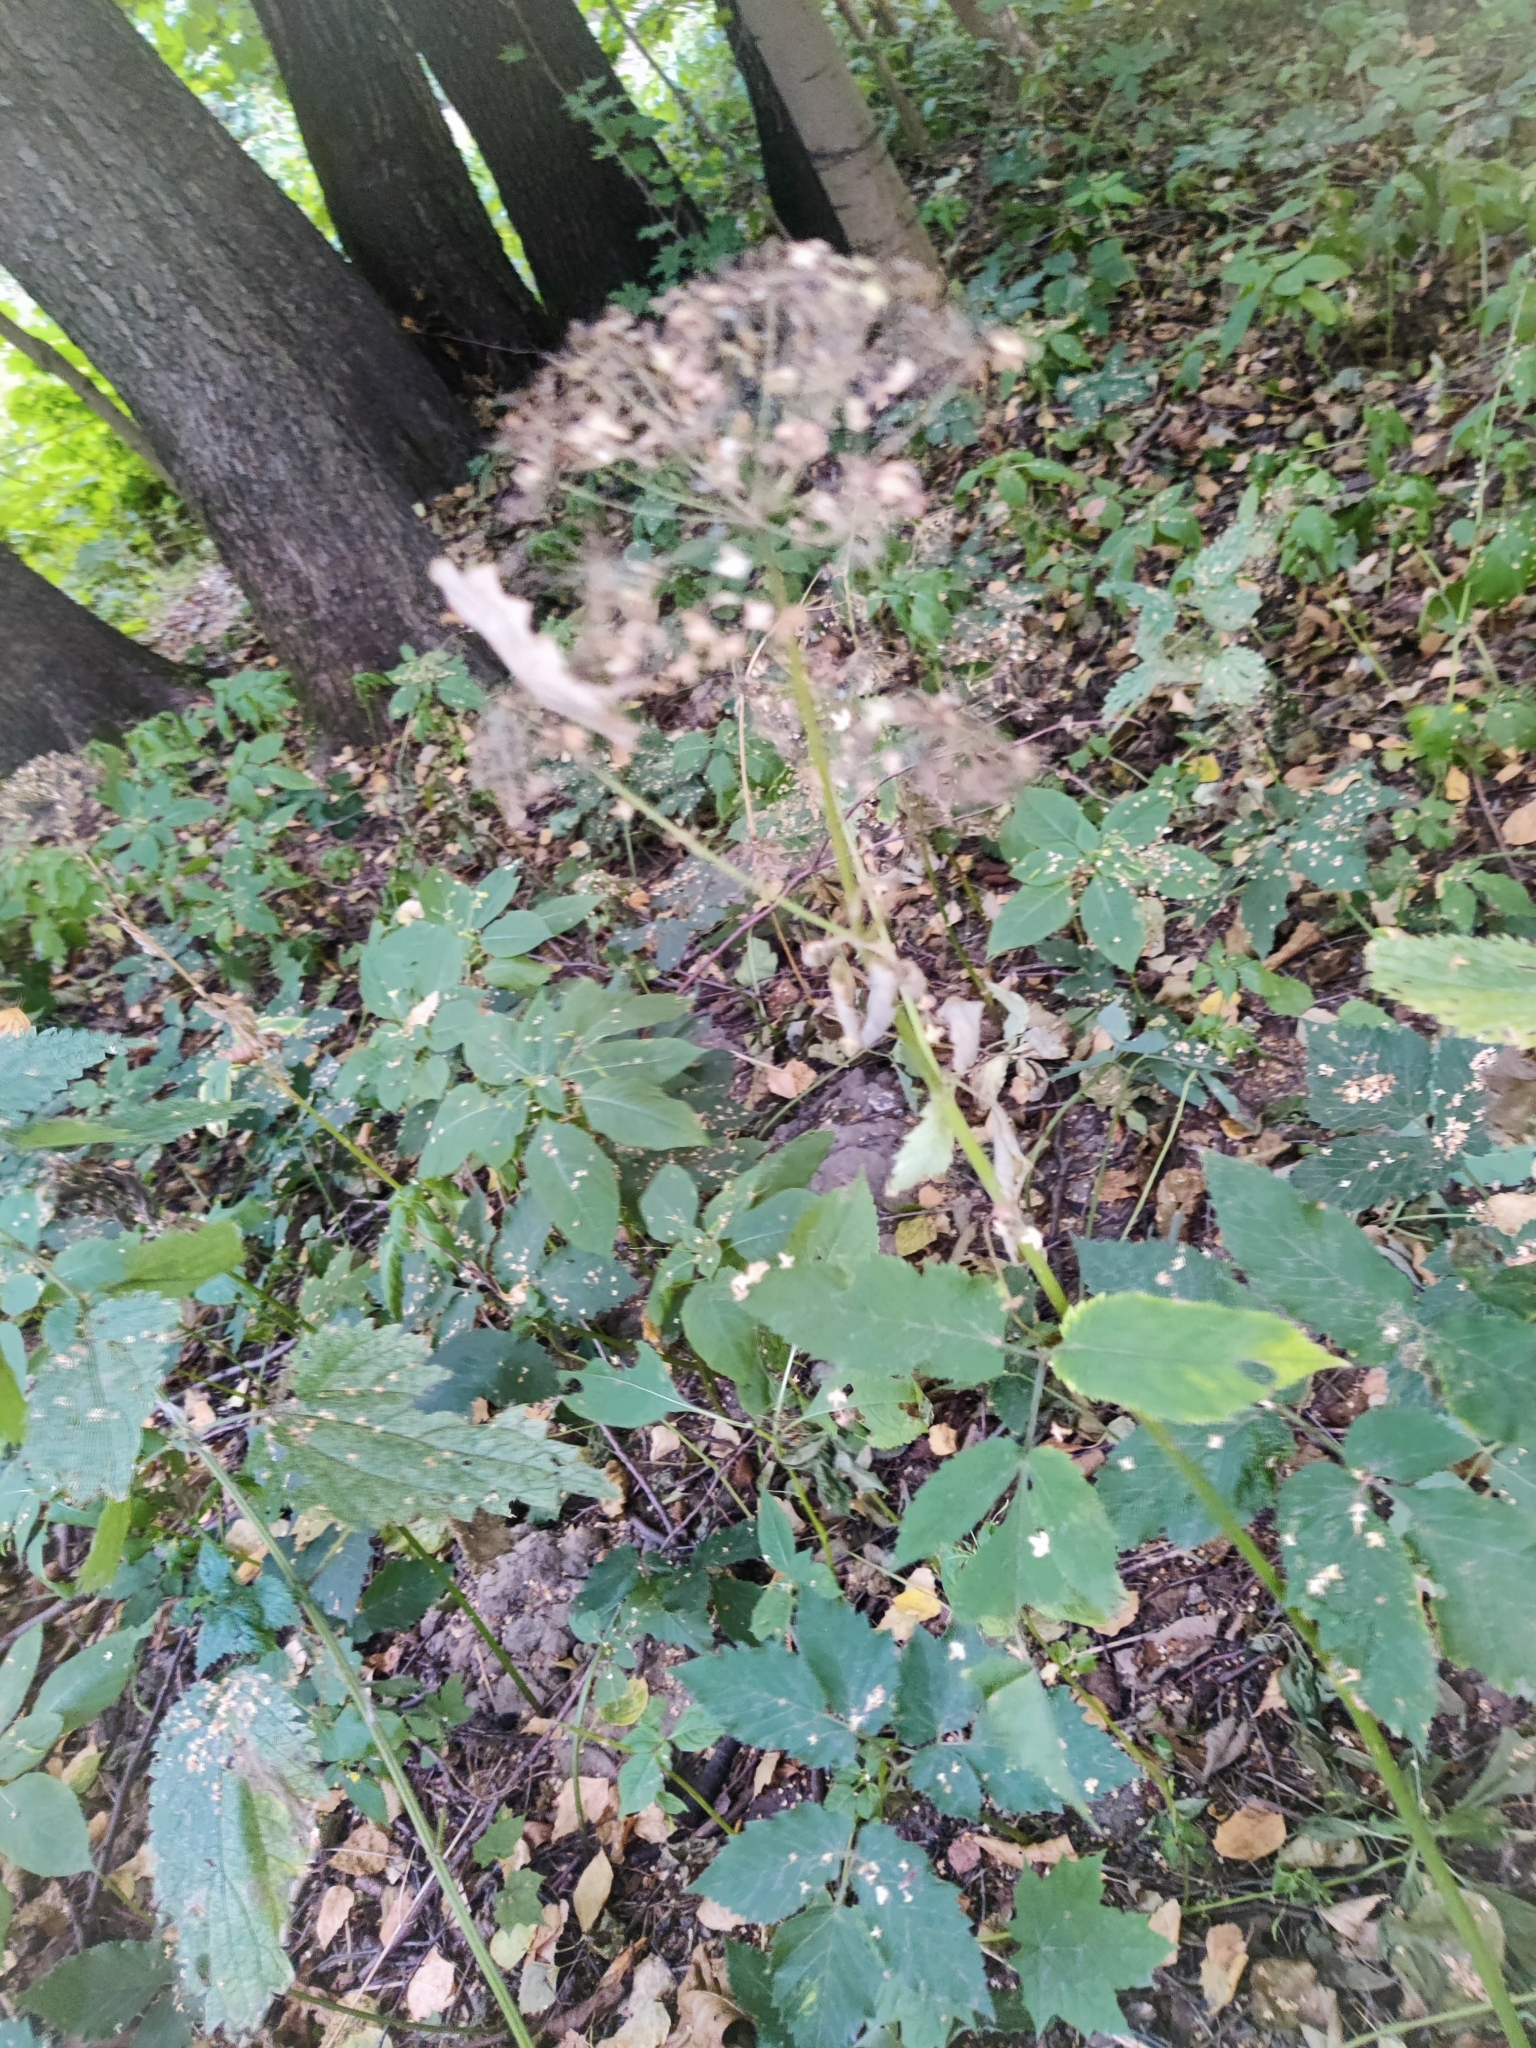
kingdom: Plantae
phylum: Tracheophyta
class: Magnoliopsida
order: Apiales
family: Apiaceae
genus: Aegopodium
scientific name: Aegopodium podagraria
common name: Ground-elder
